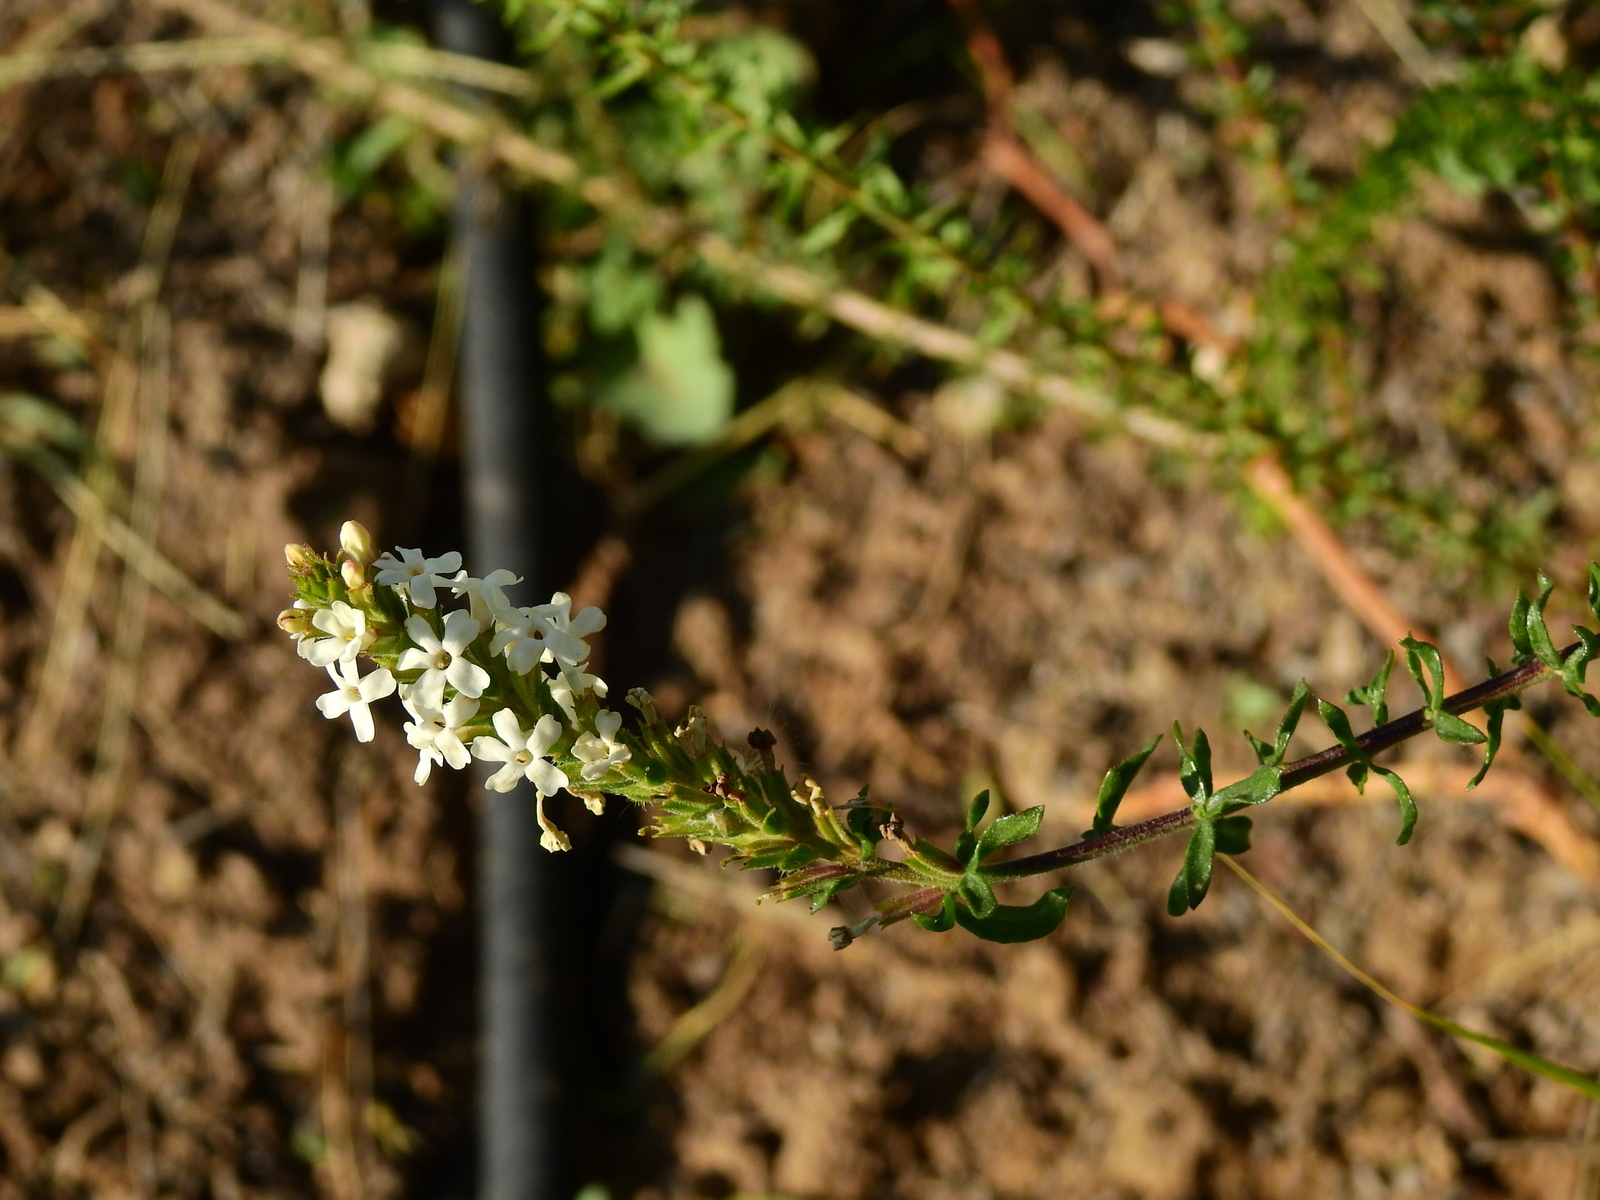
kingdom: Plantae
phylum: Tracheophyta
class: Magnoliopsida
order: Lamiales
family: Verbenaceae
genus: Mulguraea
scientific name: Mulguraea aspera
